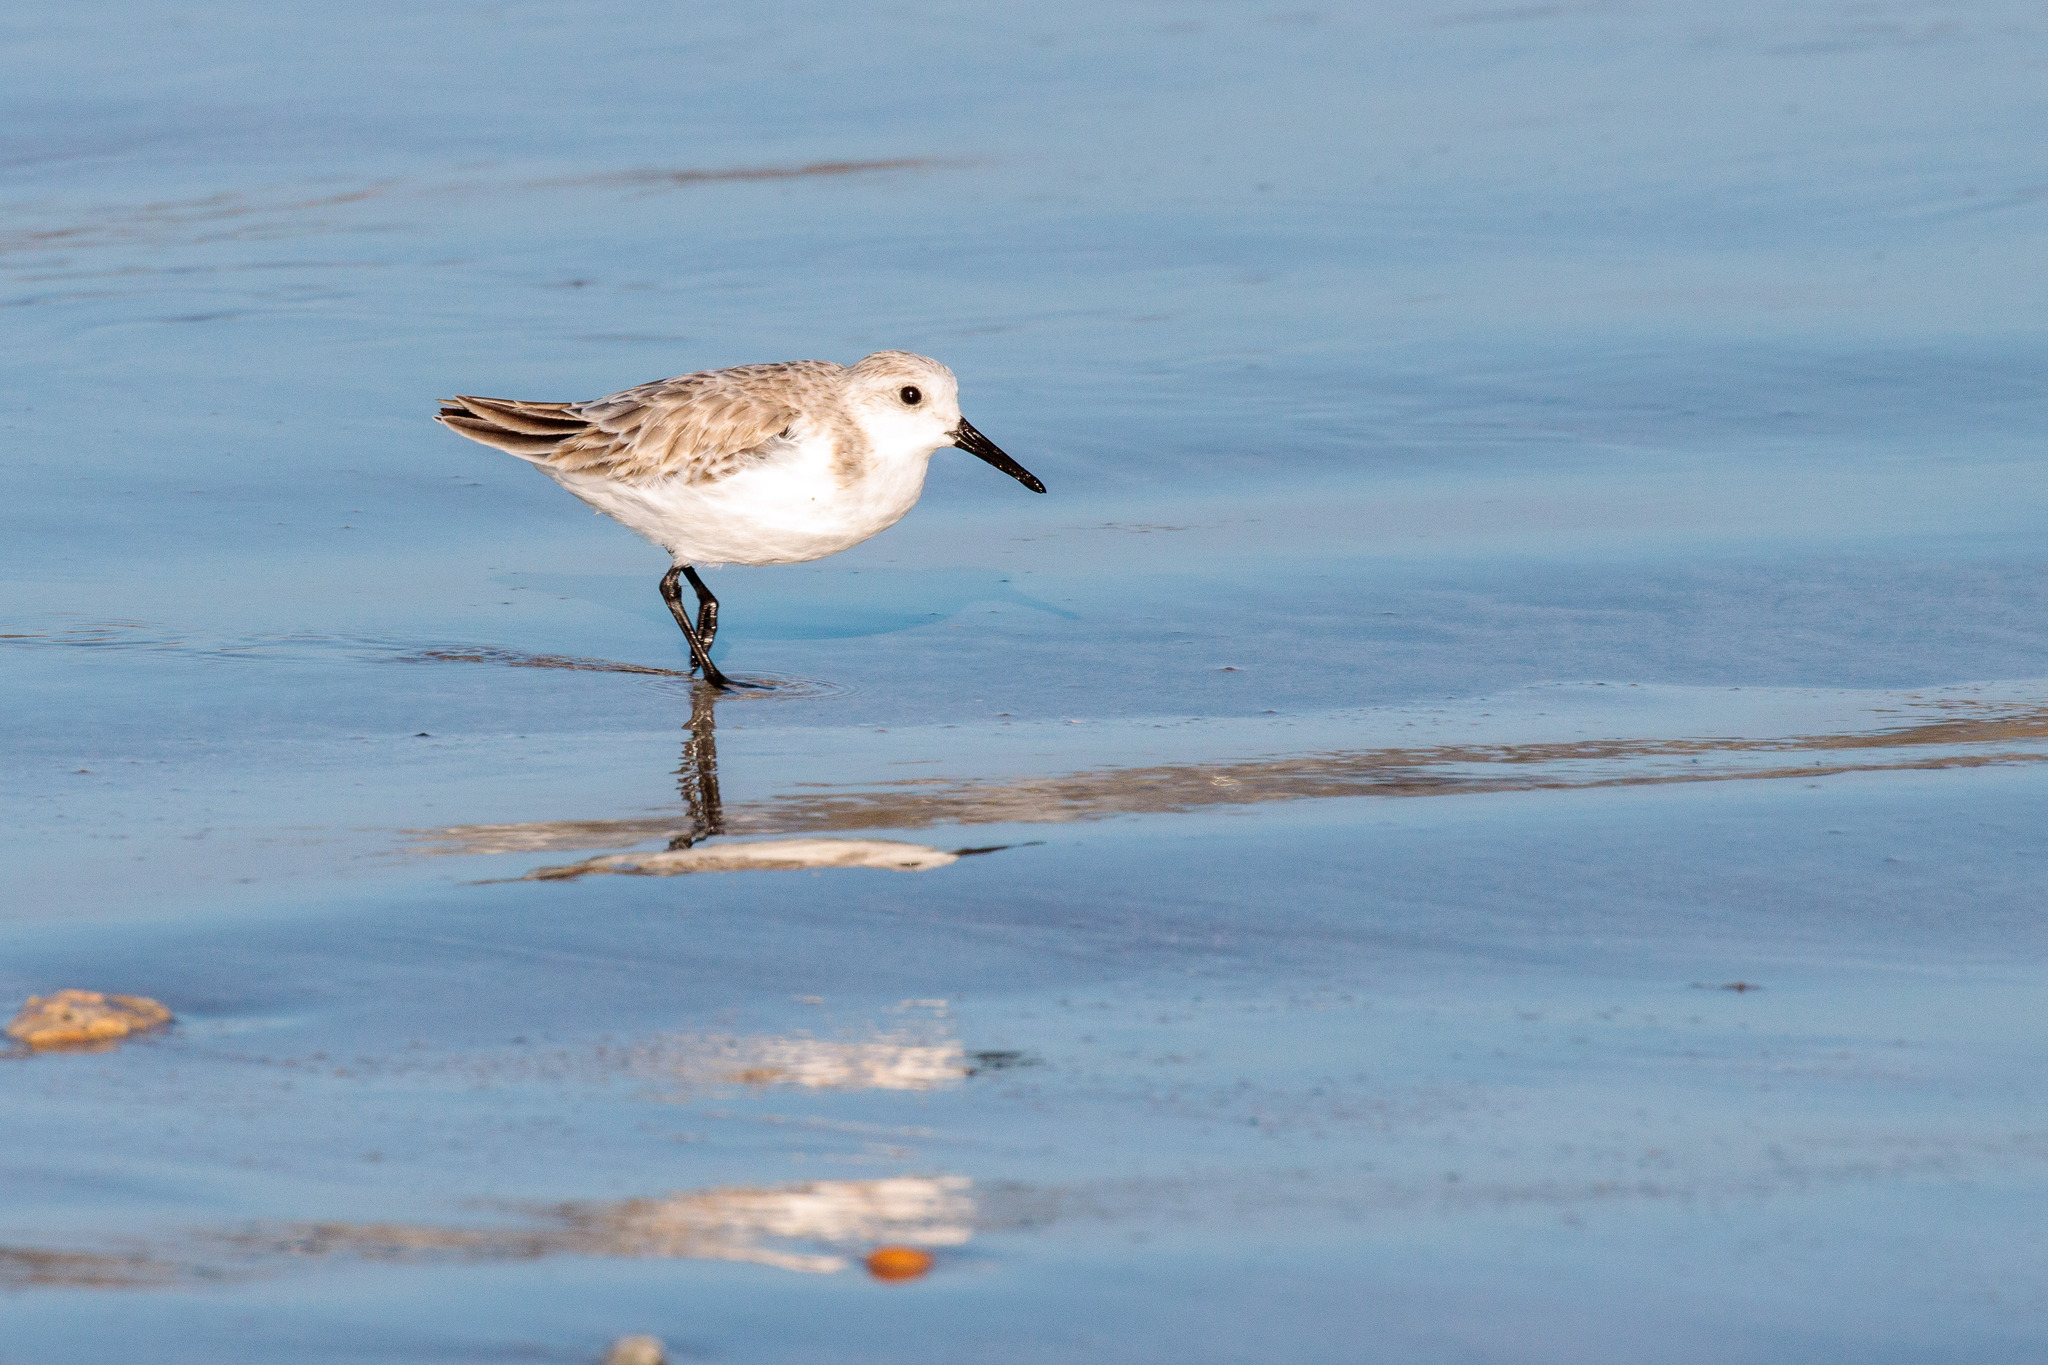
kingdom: Animalia
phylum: Chordata
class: Aves
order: Charadriiformes
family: Scolopacidae
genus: Calidris
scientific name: Calidris alba
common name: Sanderling
